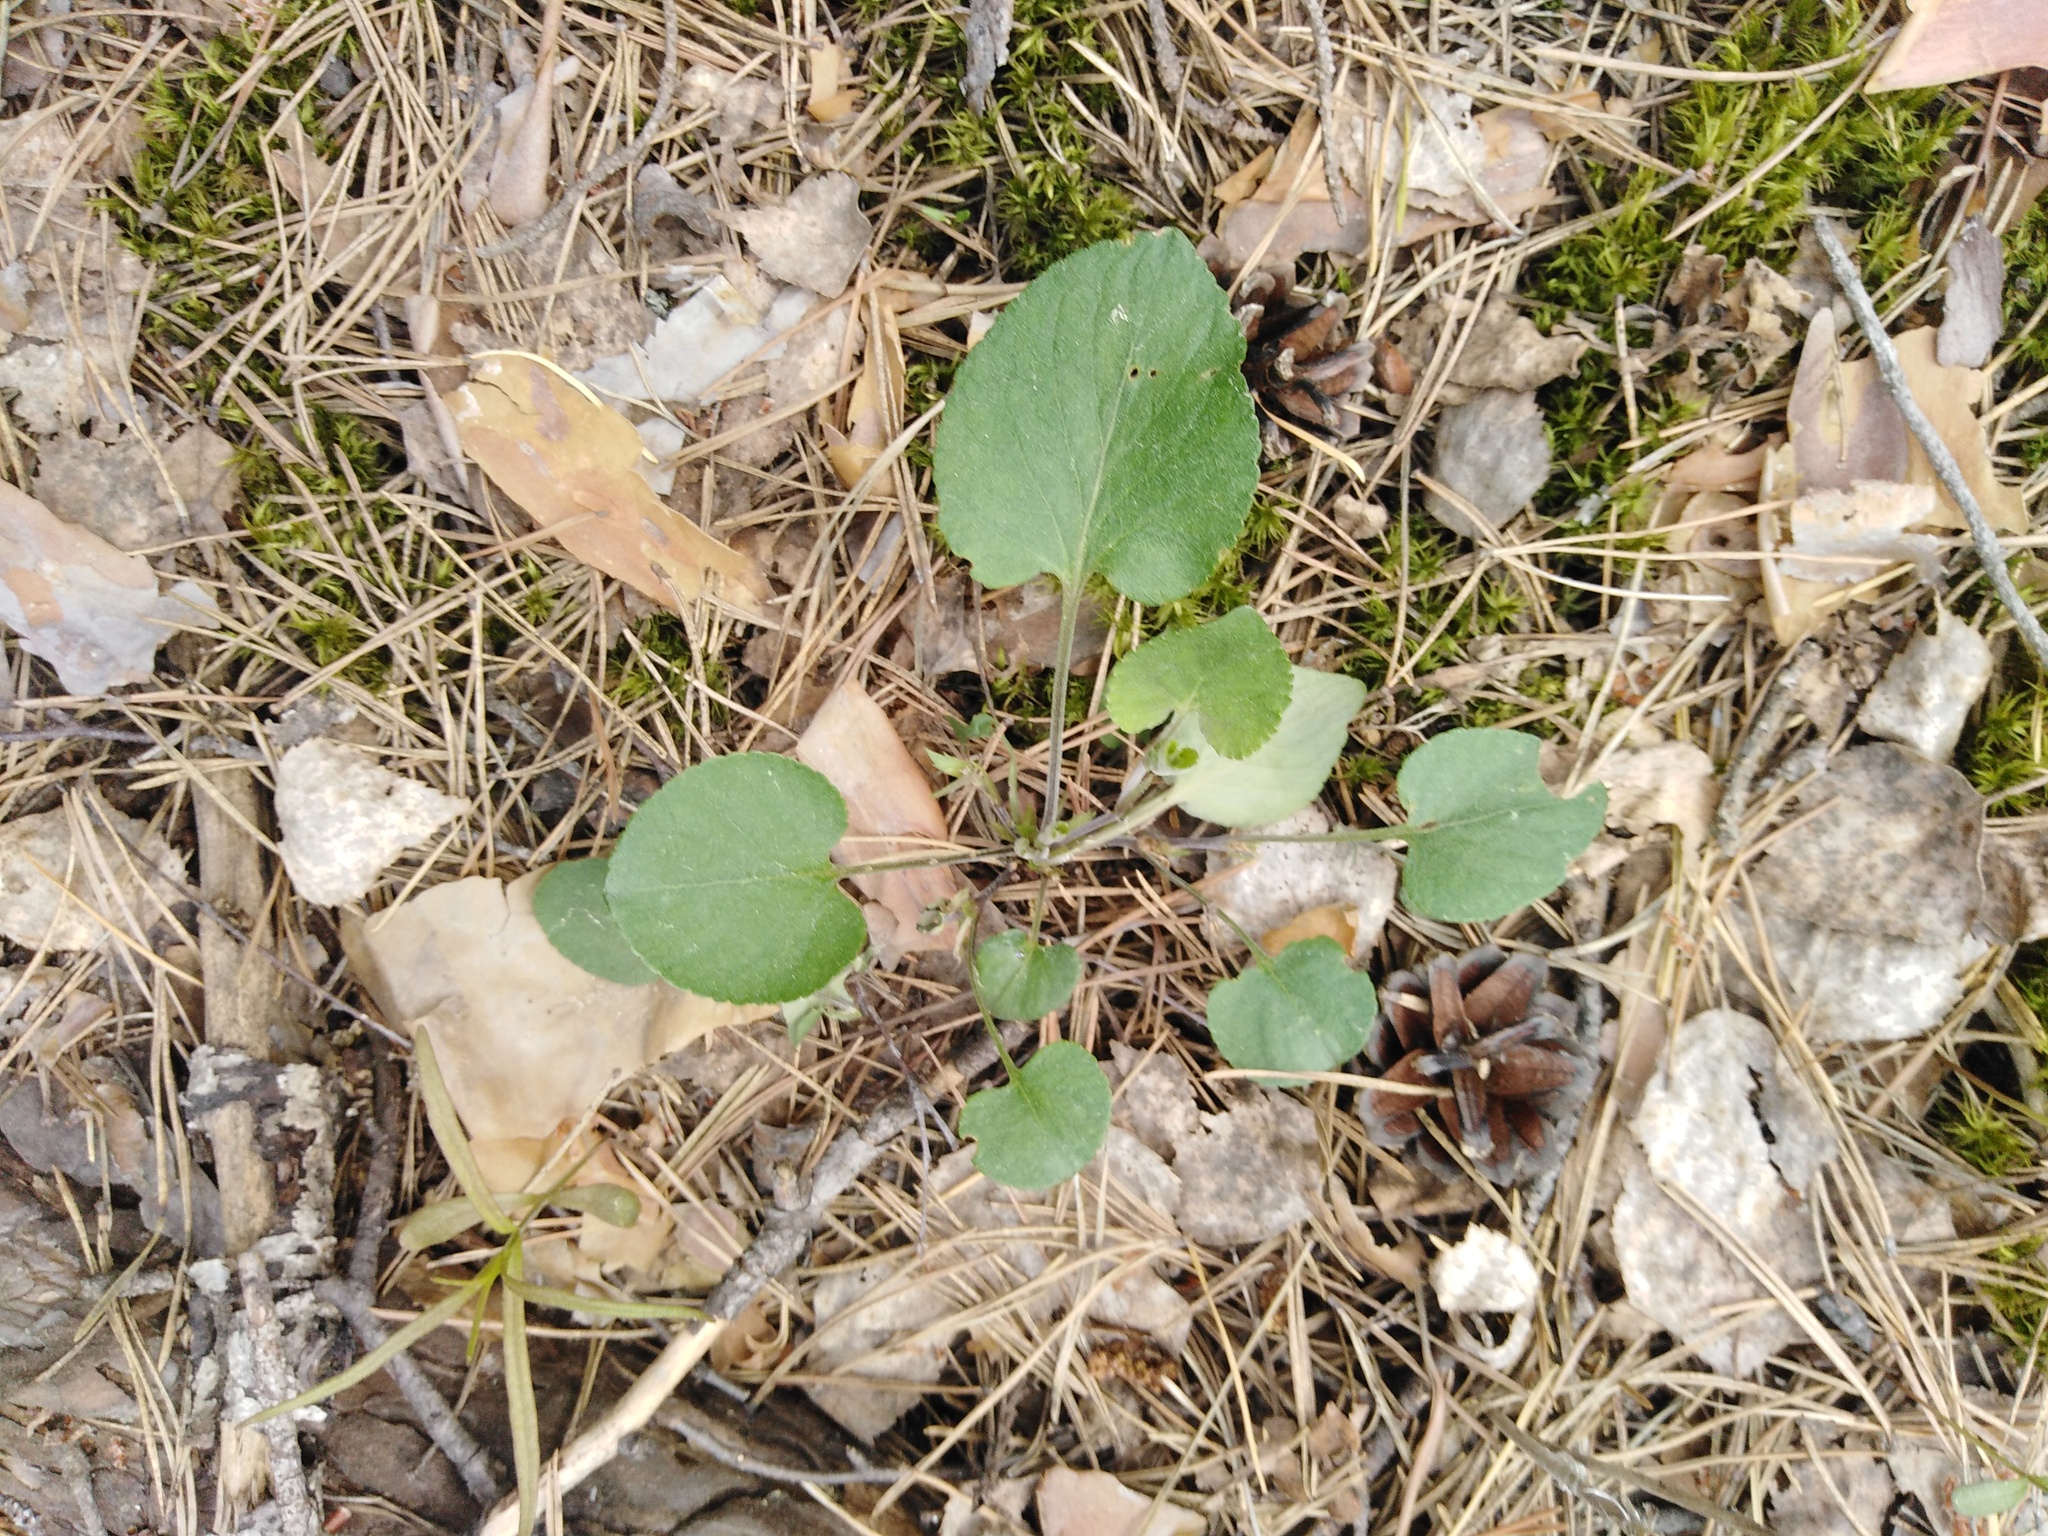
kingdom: Plantae
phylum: Tracheophyta
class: Magnoliopsida
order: Malpighiales
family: Violaceae
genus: Viola
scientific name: Viola rupestris
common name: Teesdale violet
